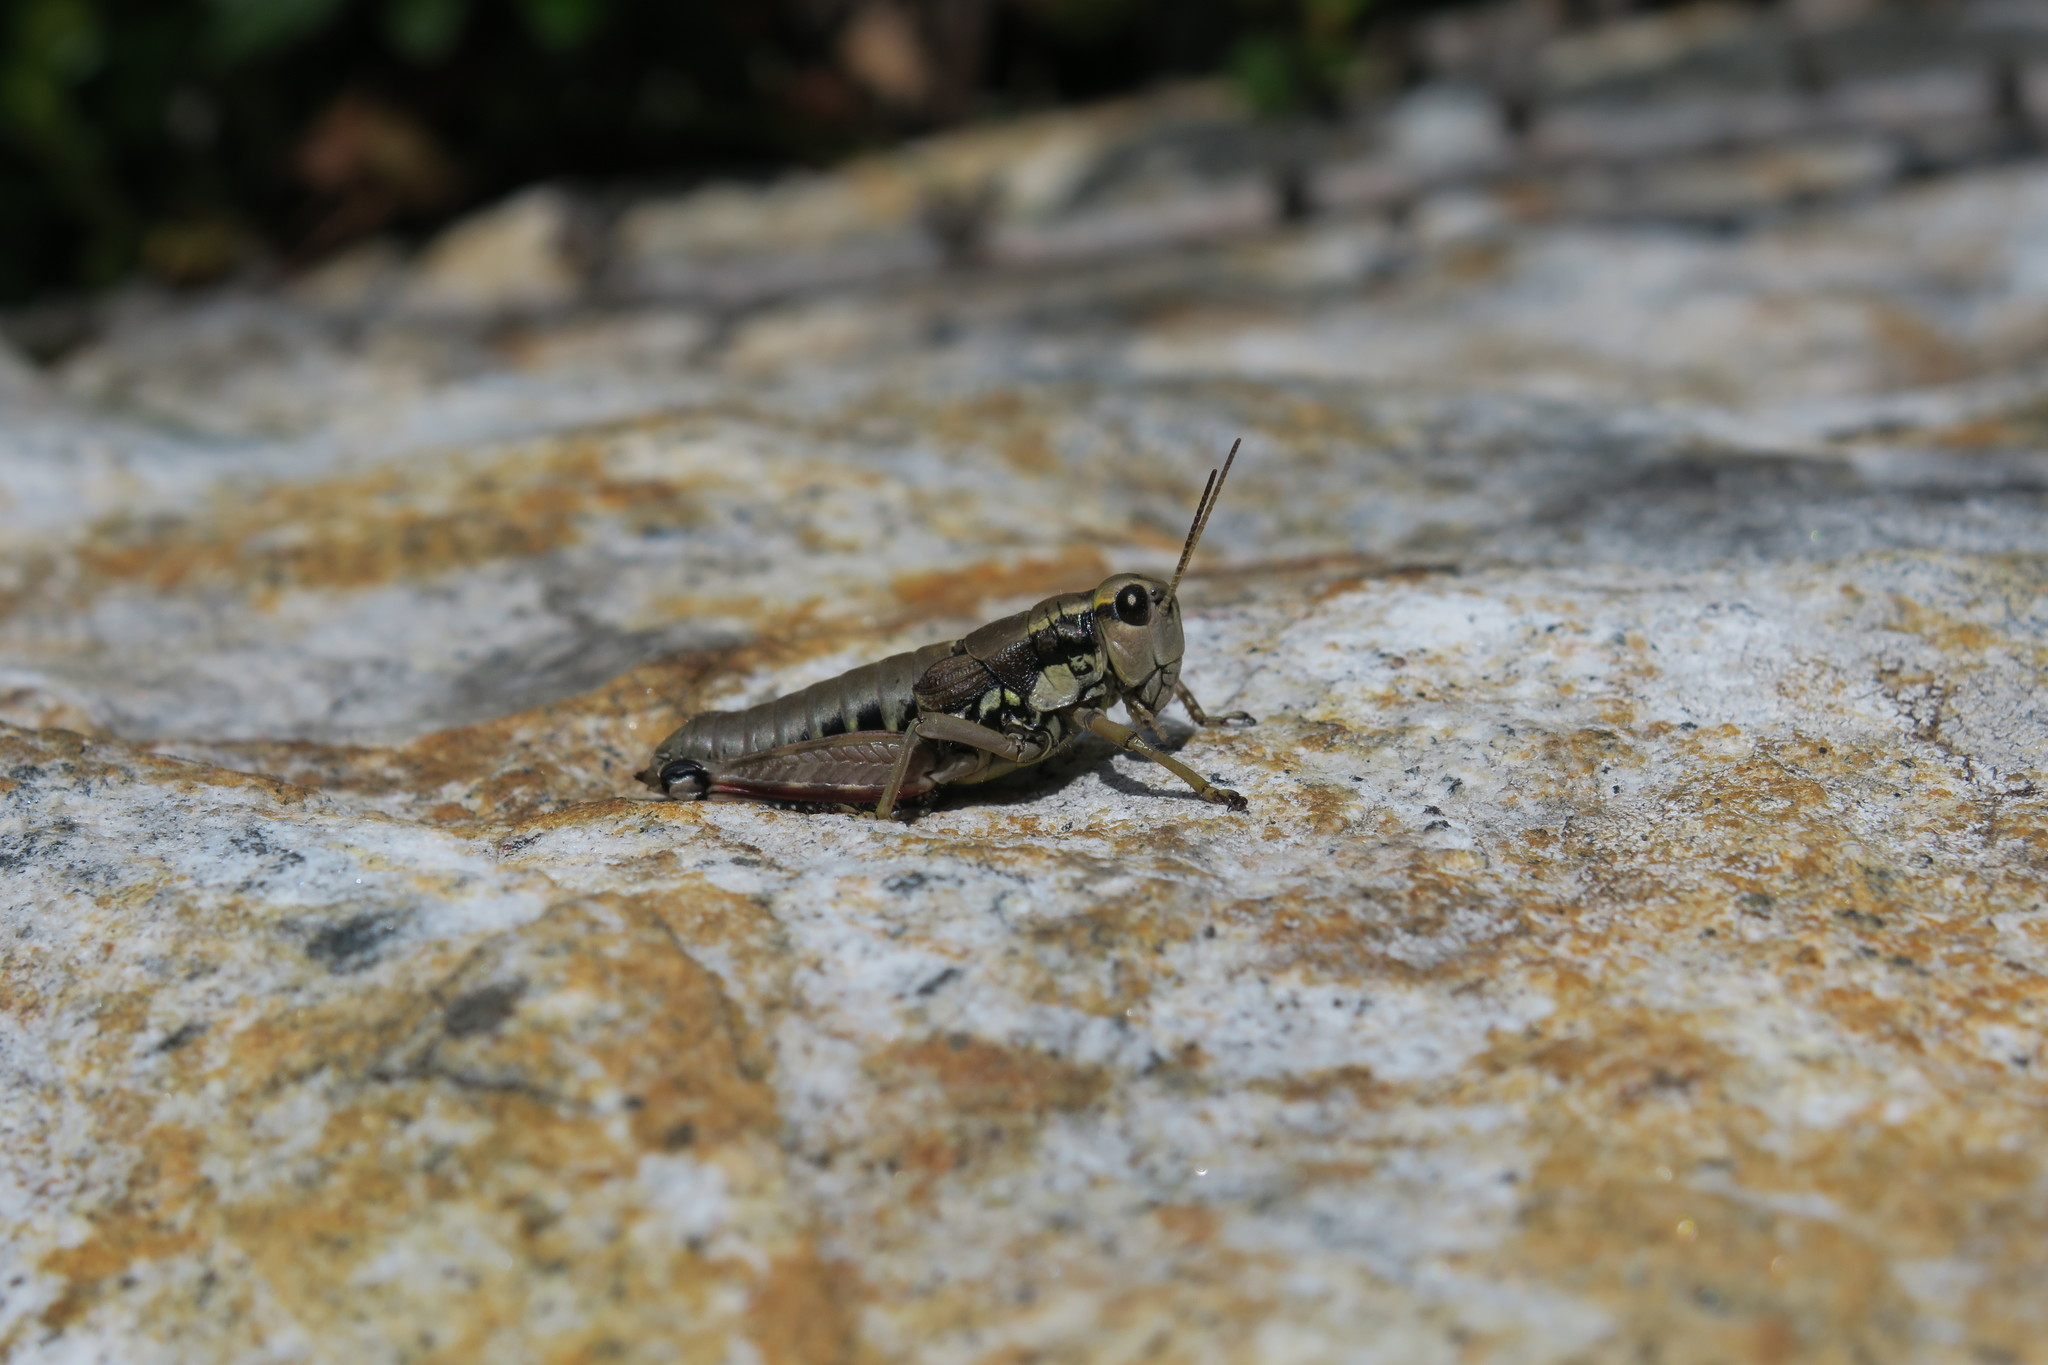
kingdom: Animalia
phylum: Arthropoda
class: Insecta
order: Orthoptera
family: Acrididae
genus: Podisma
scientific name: Podisma pedestris
